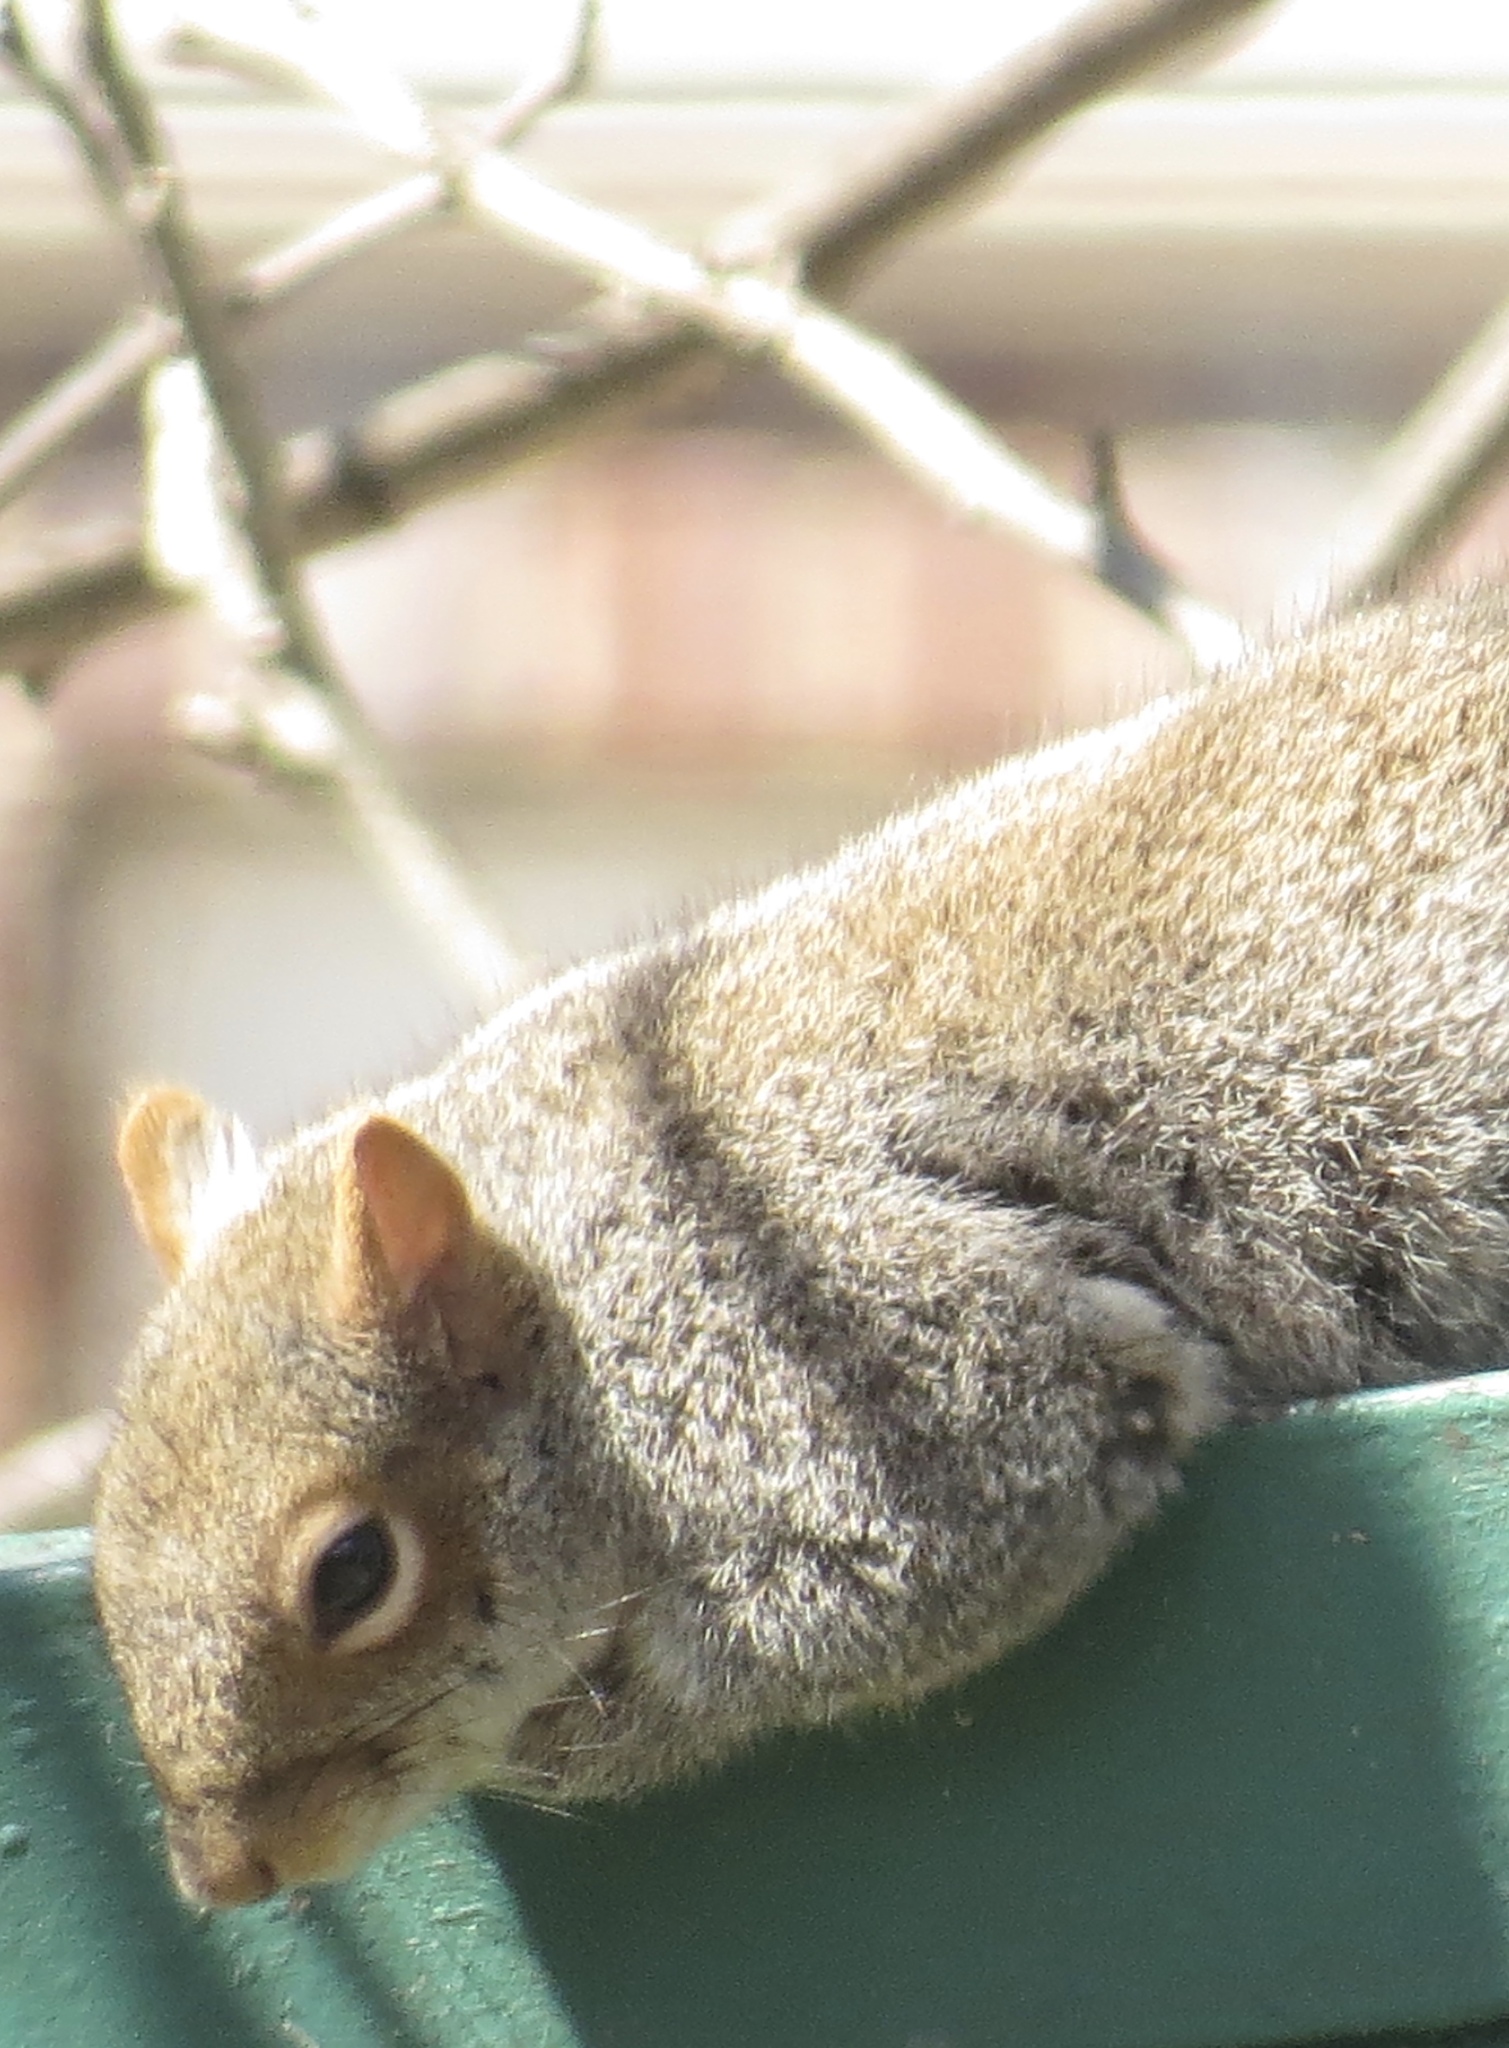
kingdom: Animalia
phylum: Chordata
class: Mammalia
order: Rodentia
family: Sciuridae
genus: Sciurus
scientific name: Sciurus carolinensis
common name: Eastern gray squirrel
